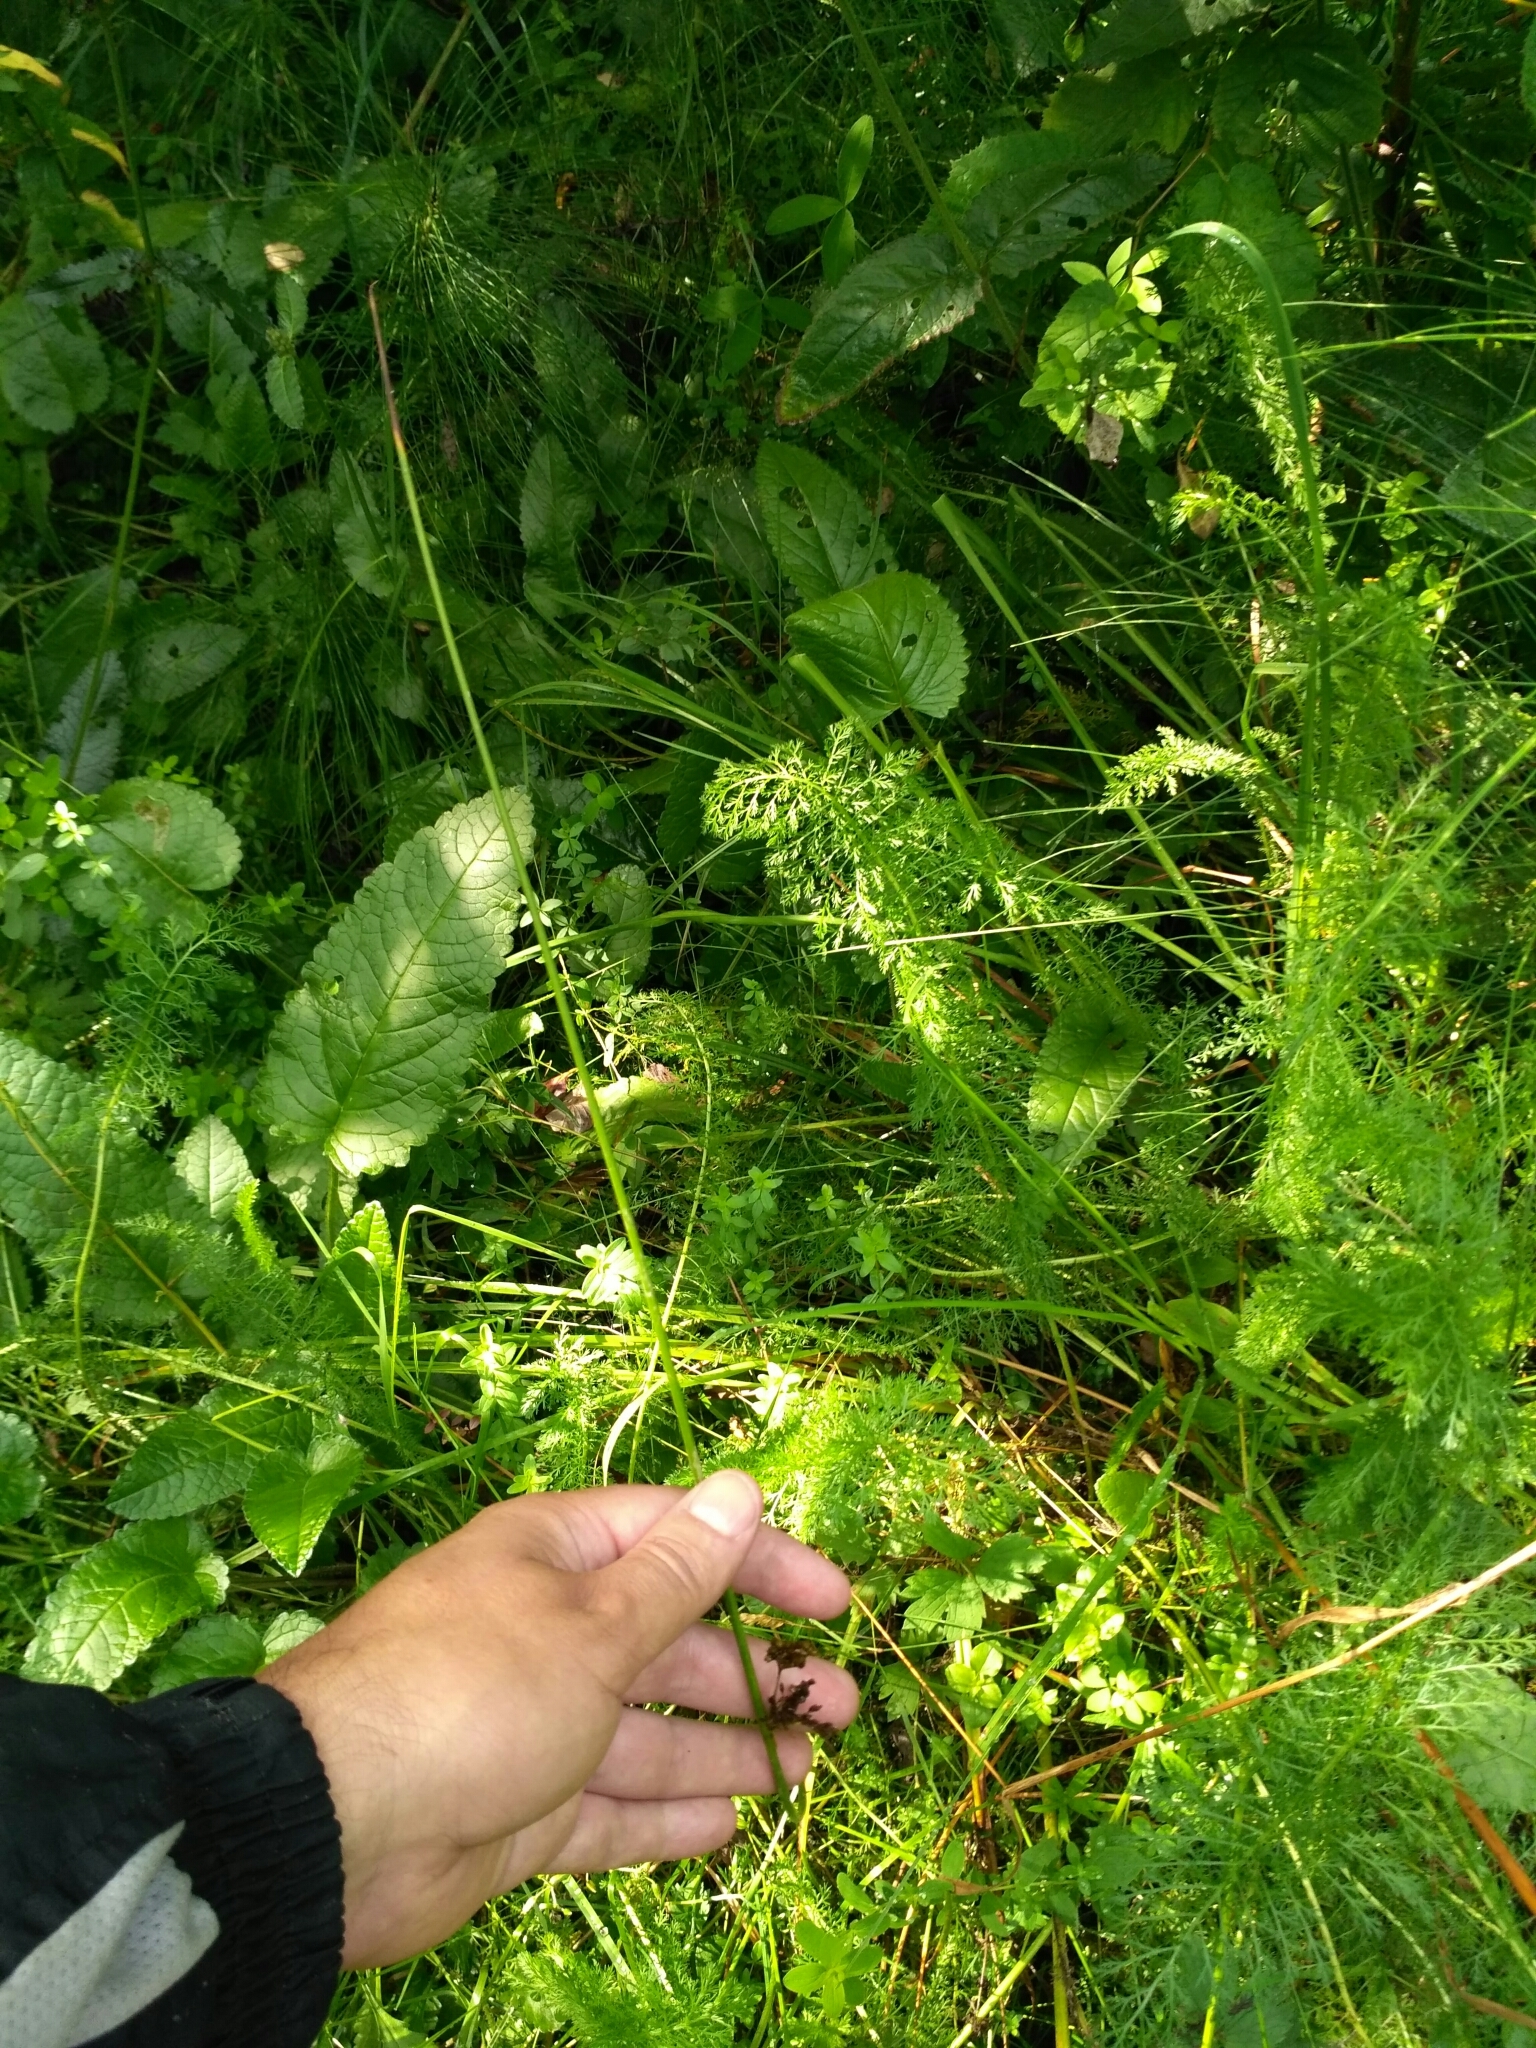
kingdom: Plantae
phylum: Tracheophyta
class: Liliopsida
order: Poales
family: Juncaceae
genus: Juncus
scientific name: Juncus effusus
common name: Soft rush
